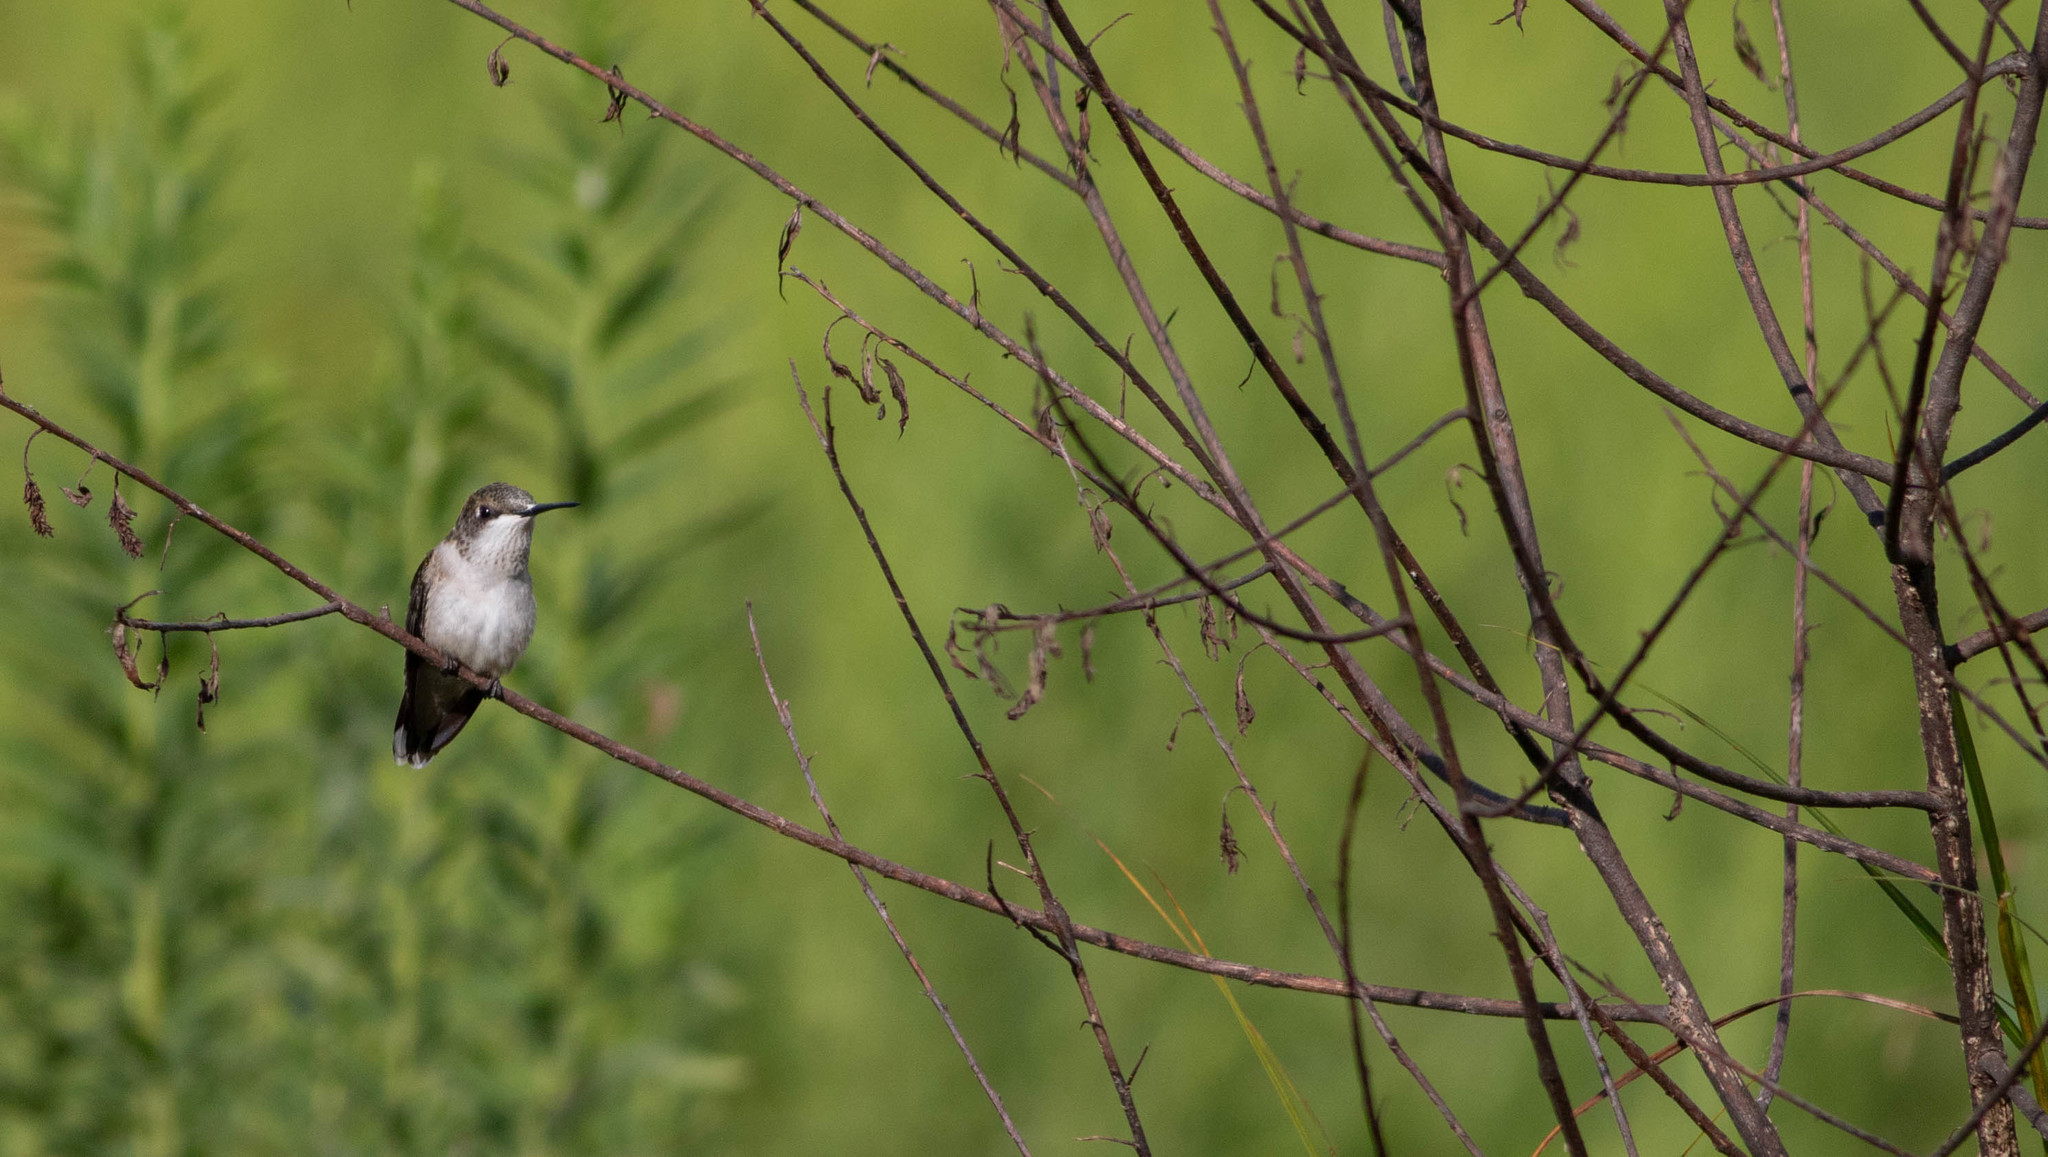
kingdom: Animalia
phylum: Chordata
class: Aves
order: Apodiformes
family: Trochilidae
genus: Archilochus
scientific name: Archilochus colubris
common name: Ruby-throated hummingbird
